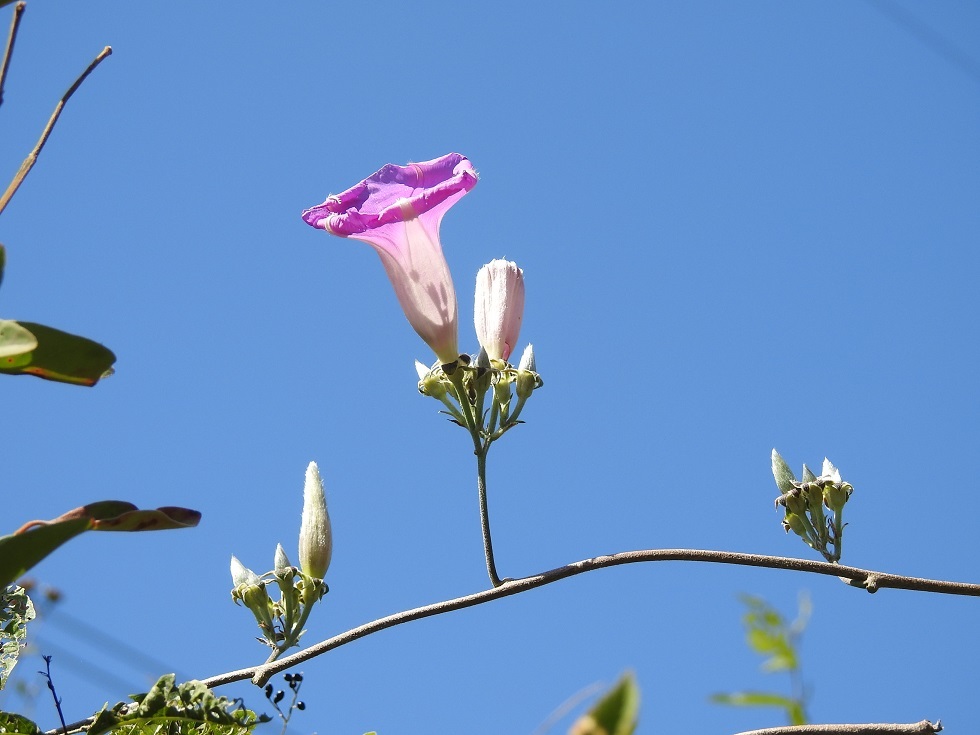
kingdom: Plantae
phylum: Tracheophyta
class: Magnoliopsida
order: Solanales
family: Convolvulaceae
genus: Ipomoea
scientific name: Ipomoea leucotricha
